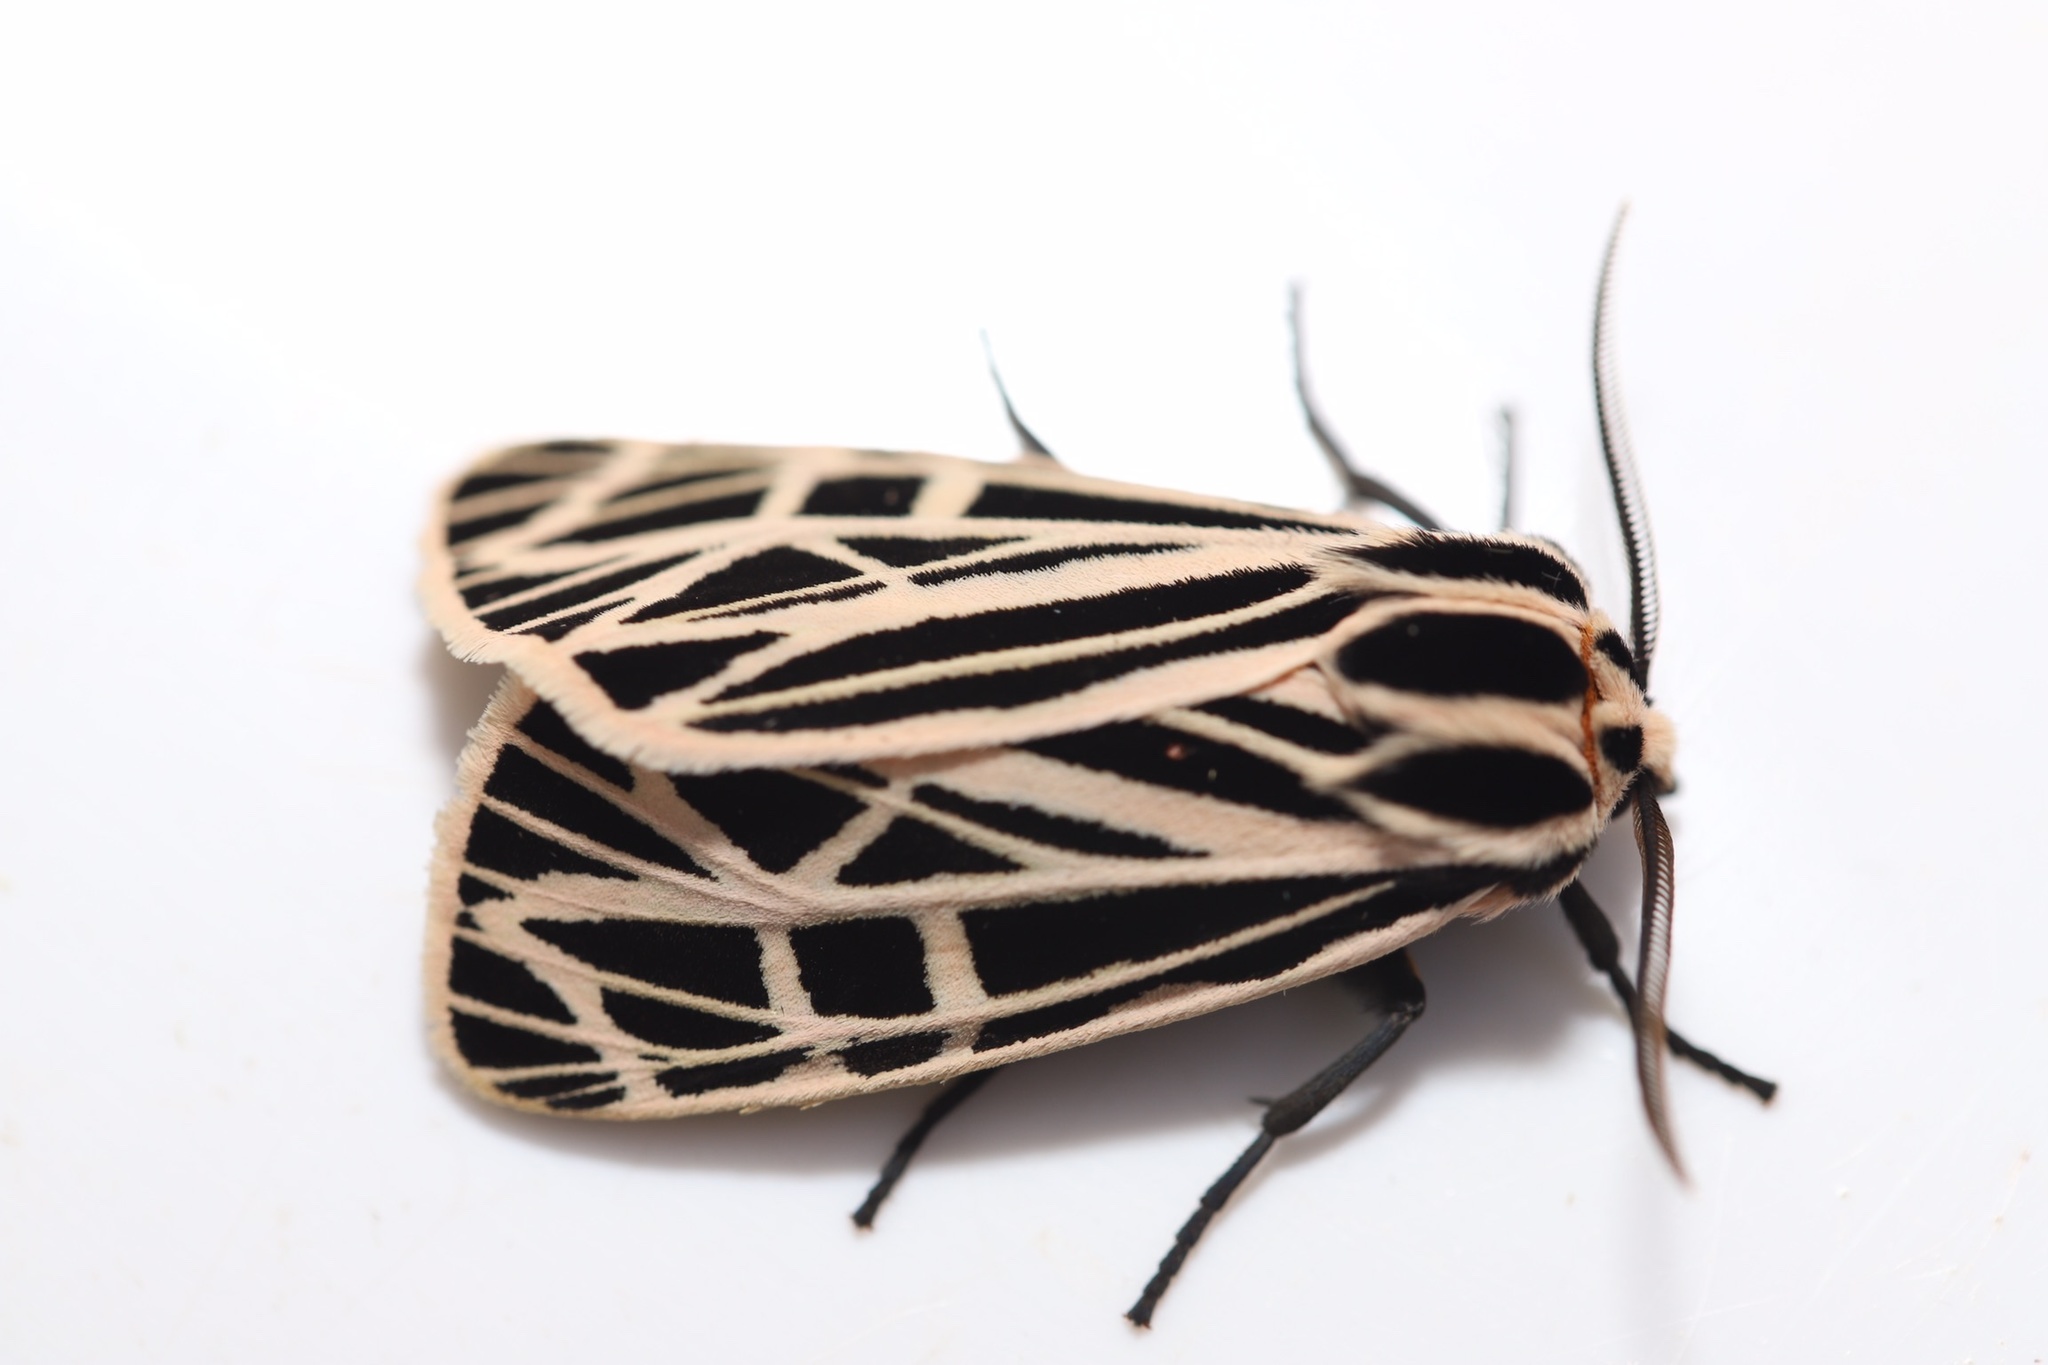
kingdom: Animalia
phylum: Arthropoda
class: Insecta
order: Lepidoptera
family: Erebidae
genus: Grammia
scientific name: Grammia virgo
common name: Virgin tiger moth
